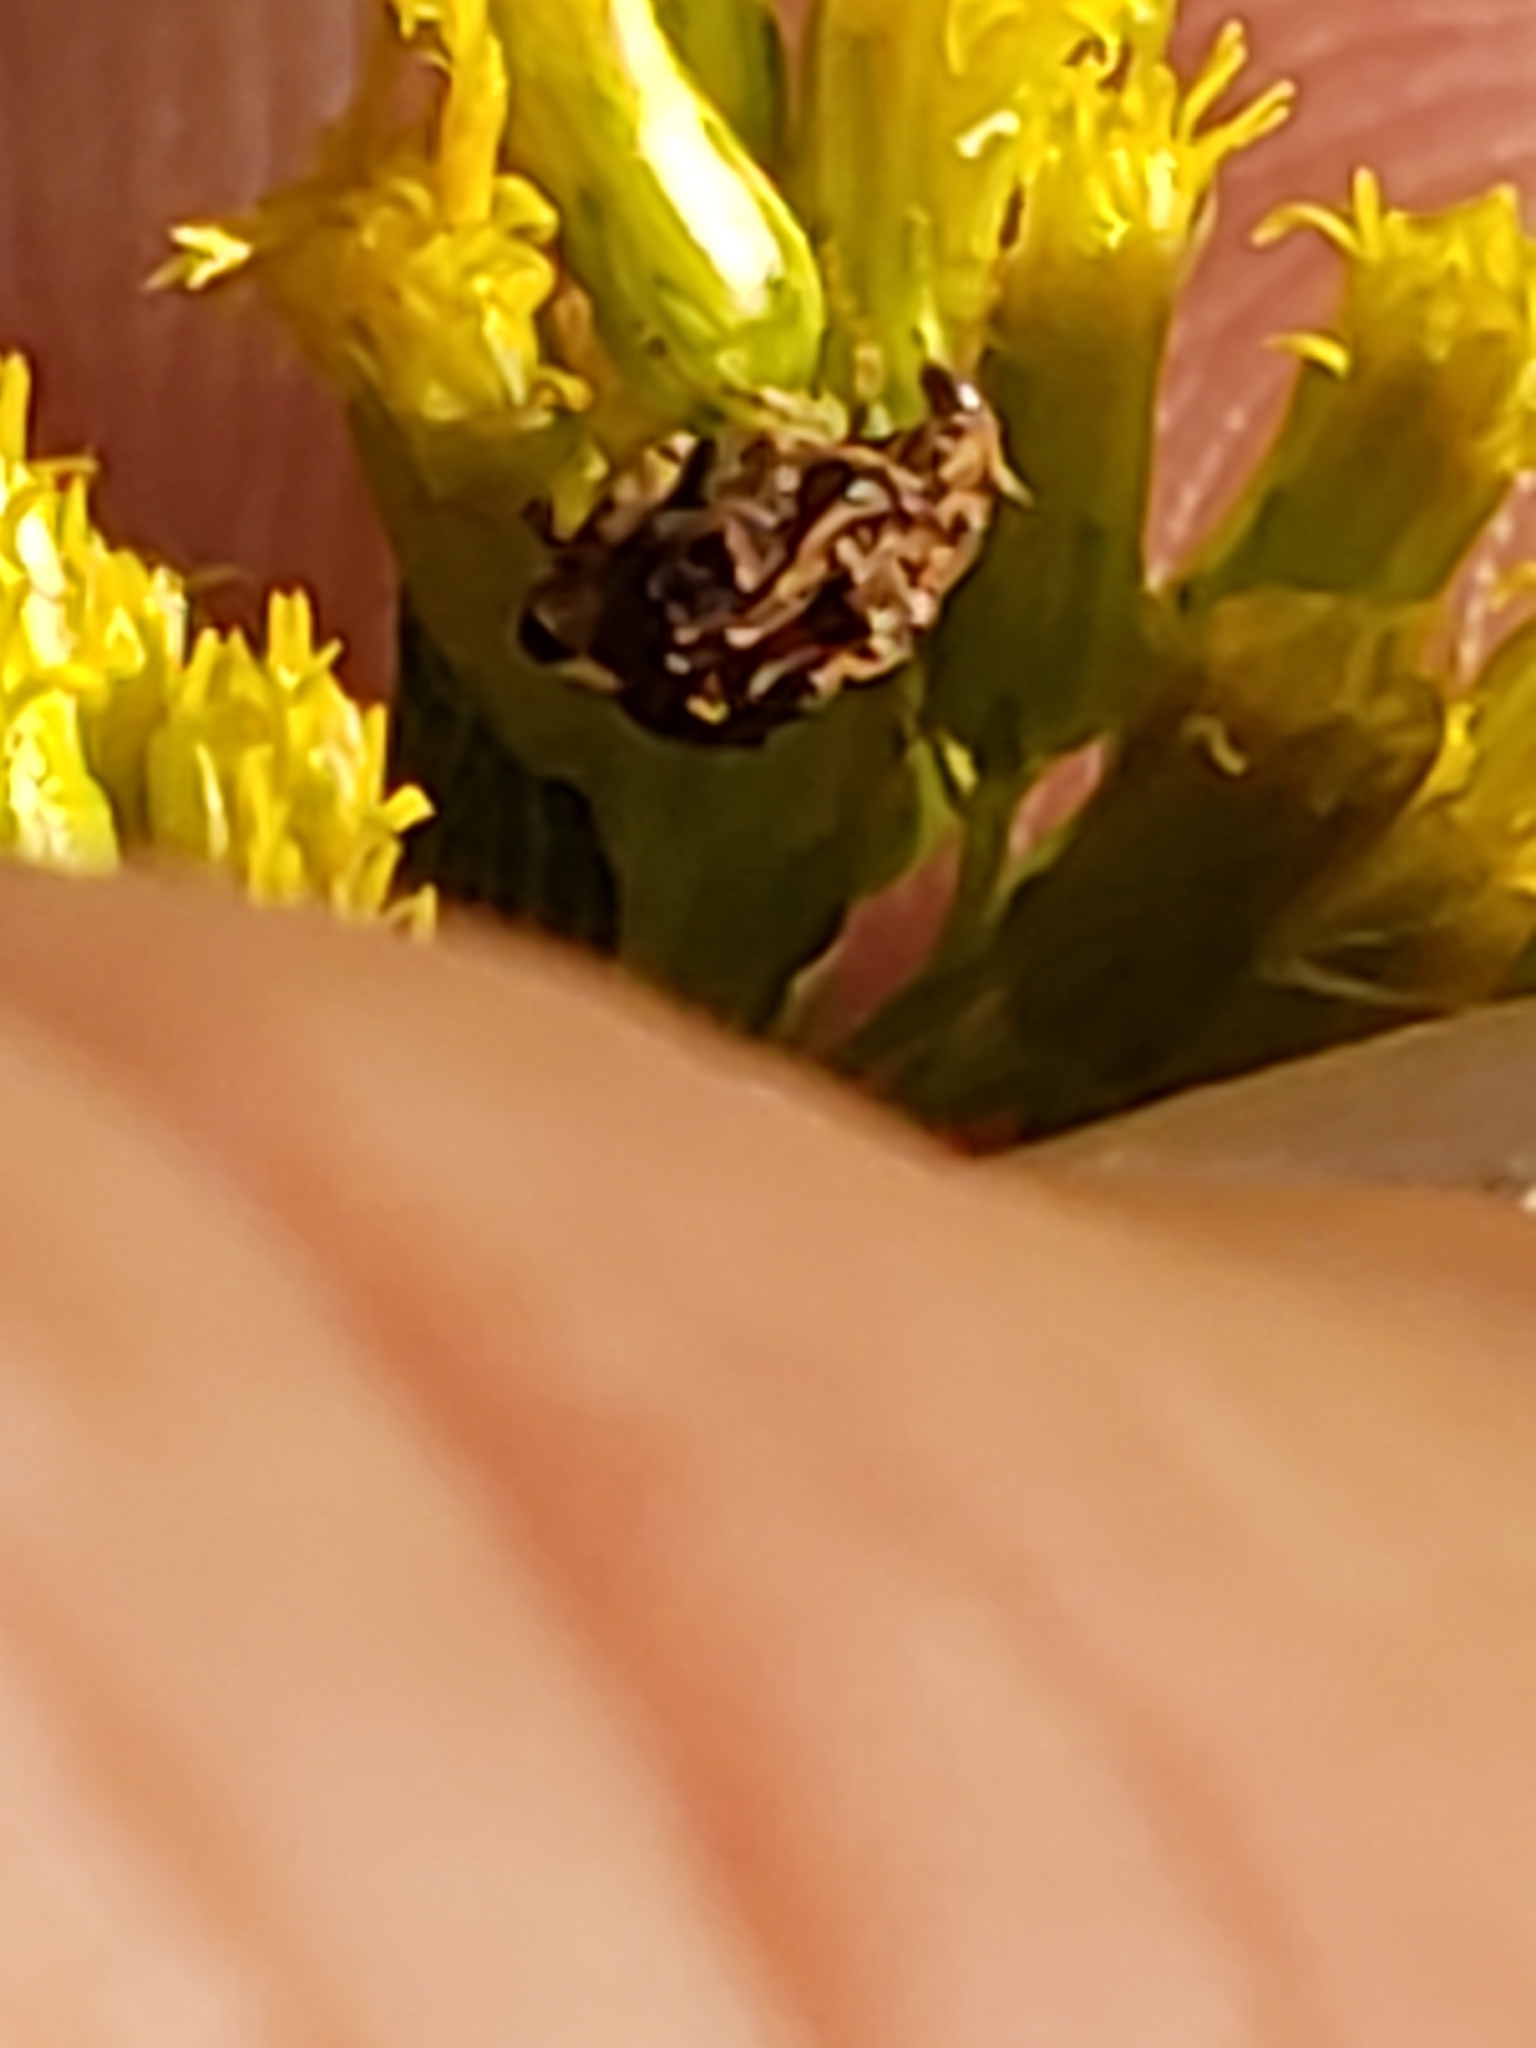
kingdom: Animalia
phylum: Arthropoda
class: Insecta
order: Coleoptera
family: Chrysomelidae
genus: Gibbobruchus
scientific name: Gibbobruchus mimus
